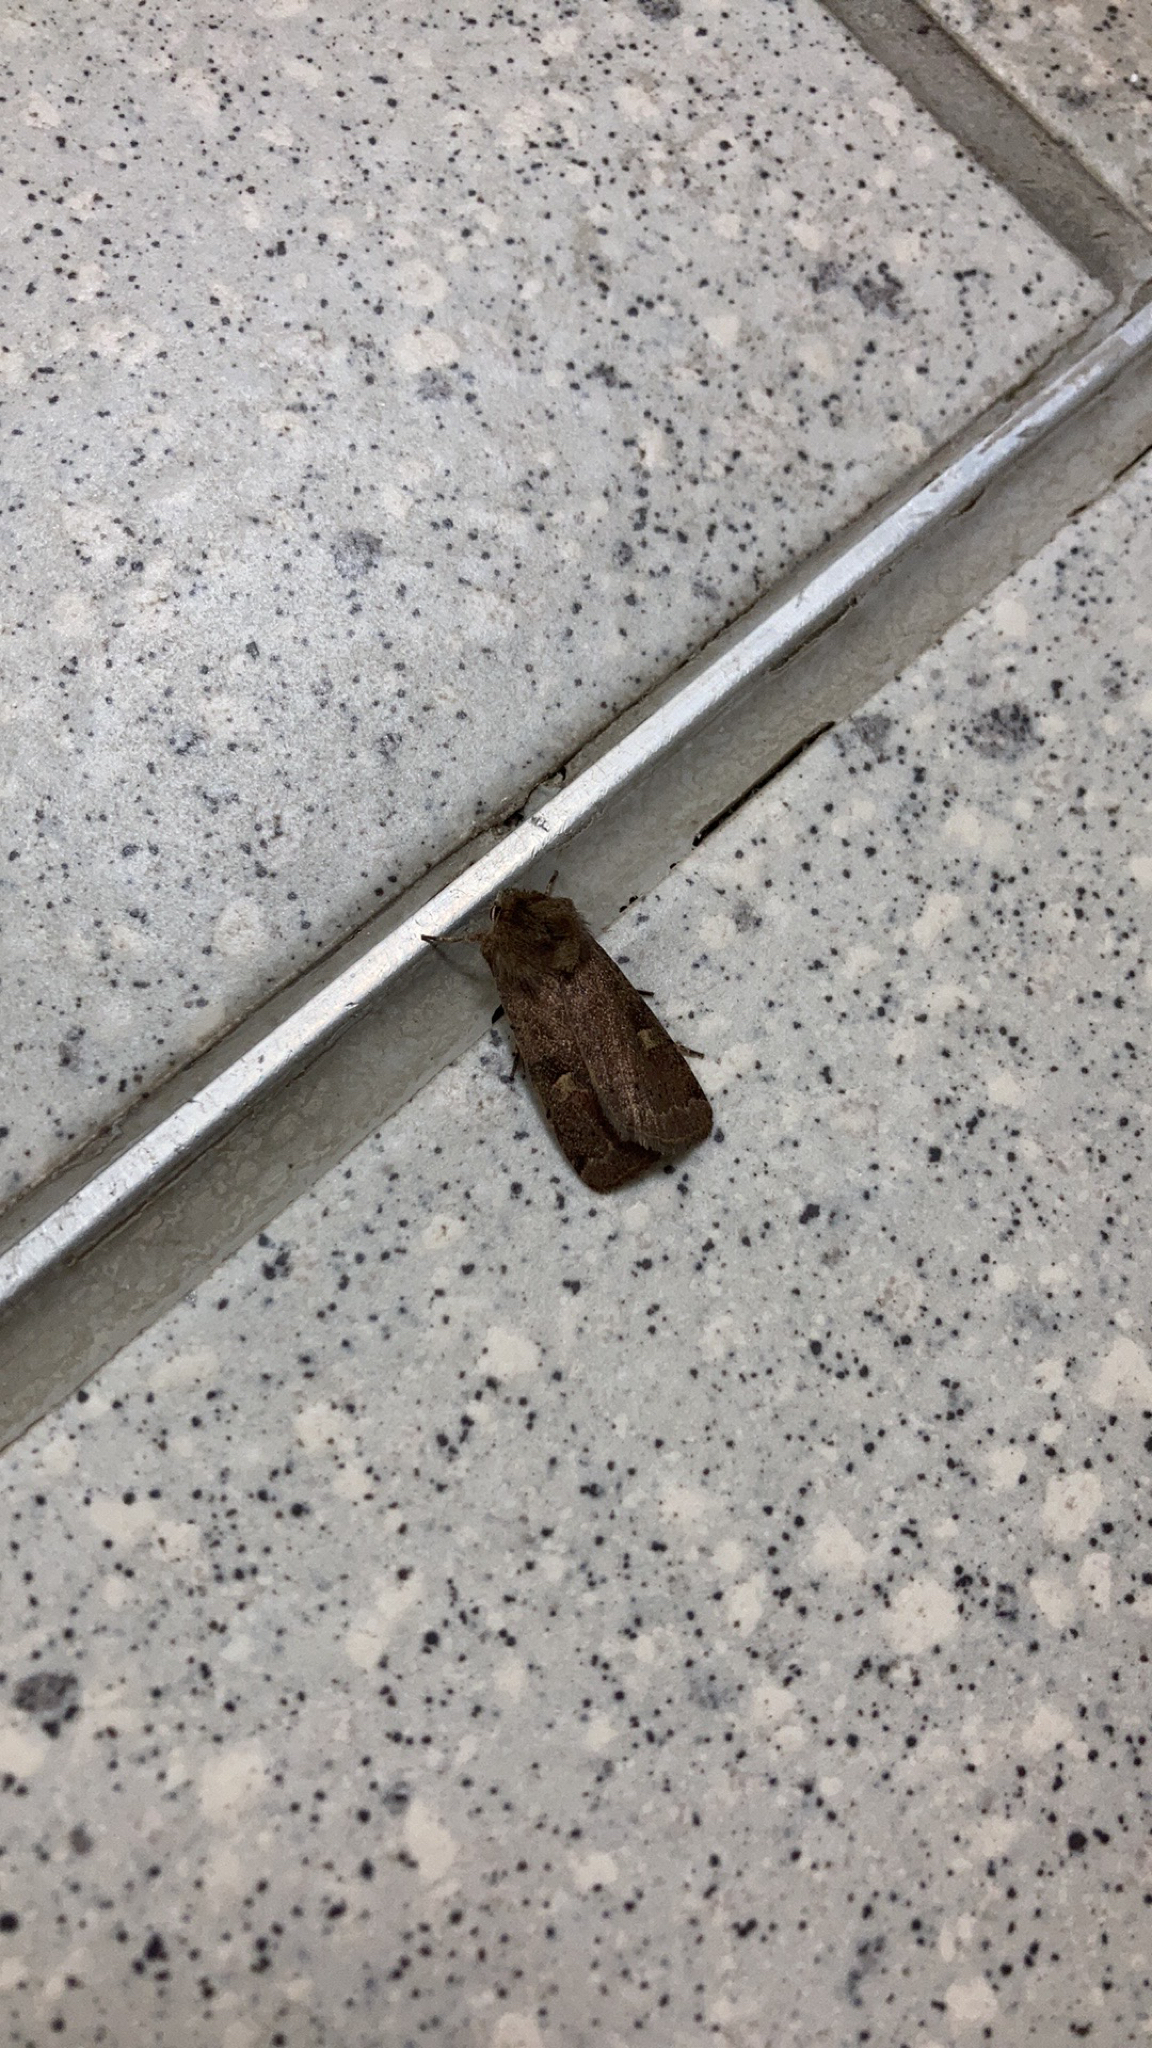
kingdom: Animalia
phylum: Arthropoda
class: Insecta
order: Lepidoptera
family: Noctuidae
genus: Xestia
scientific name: Xestia xanthographa
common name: Square-spot rustic
